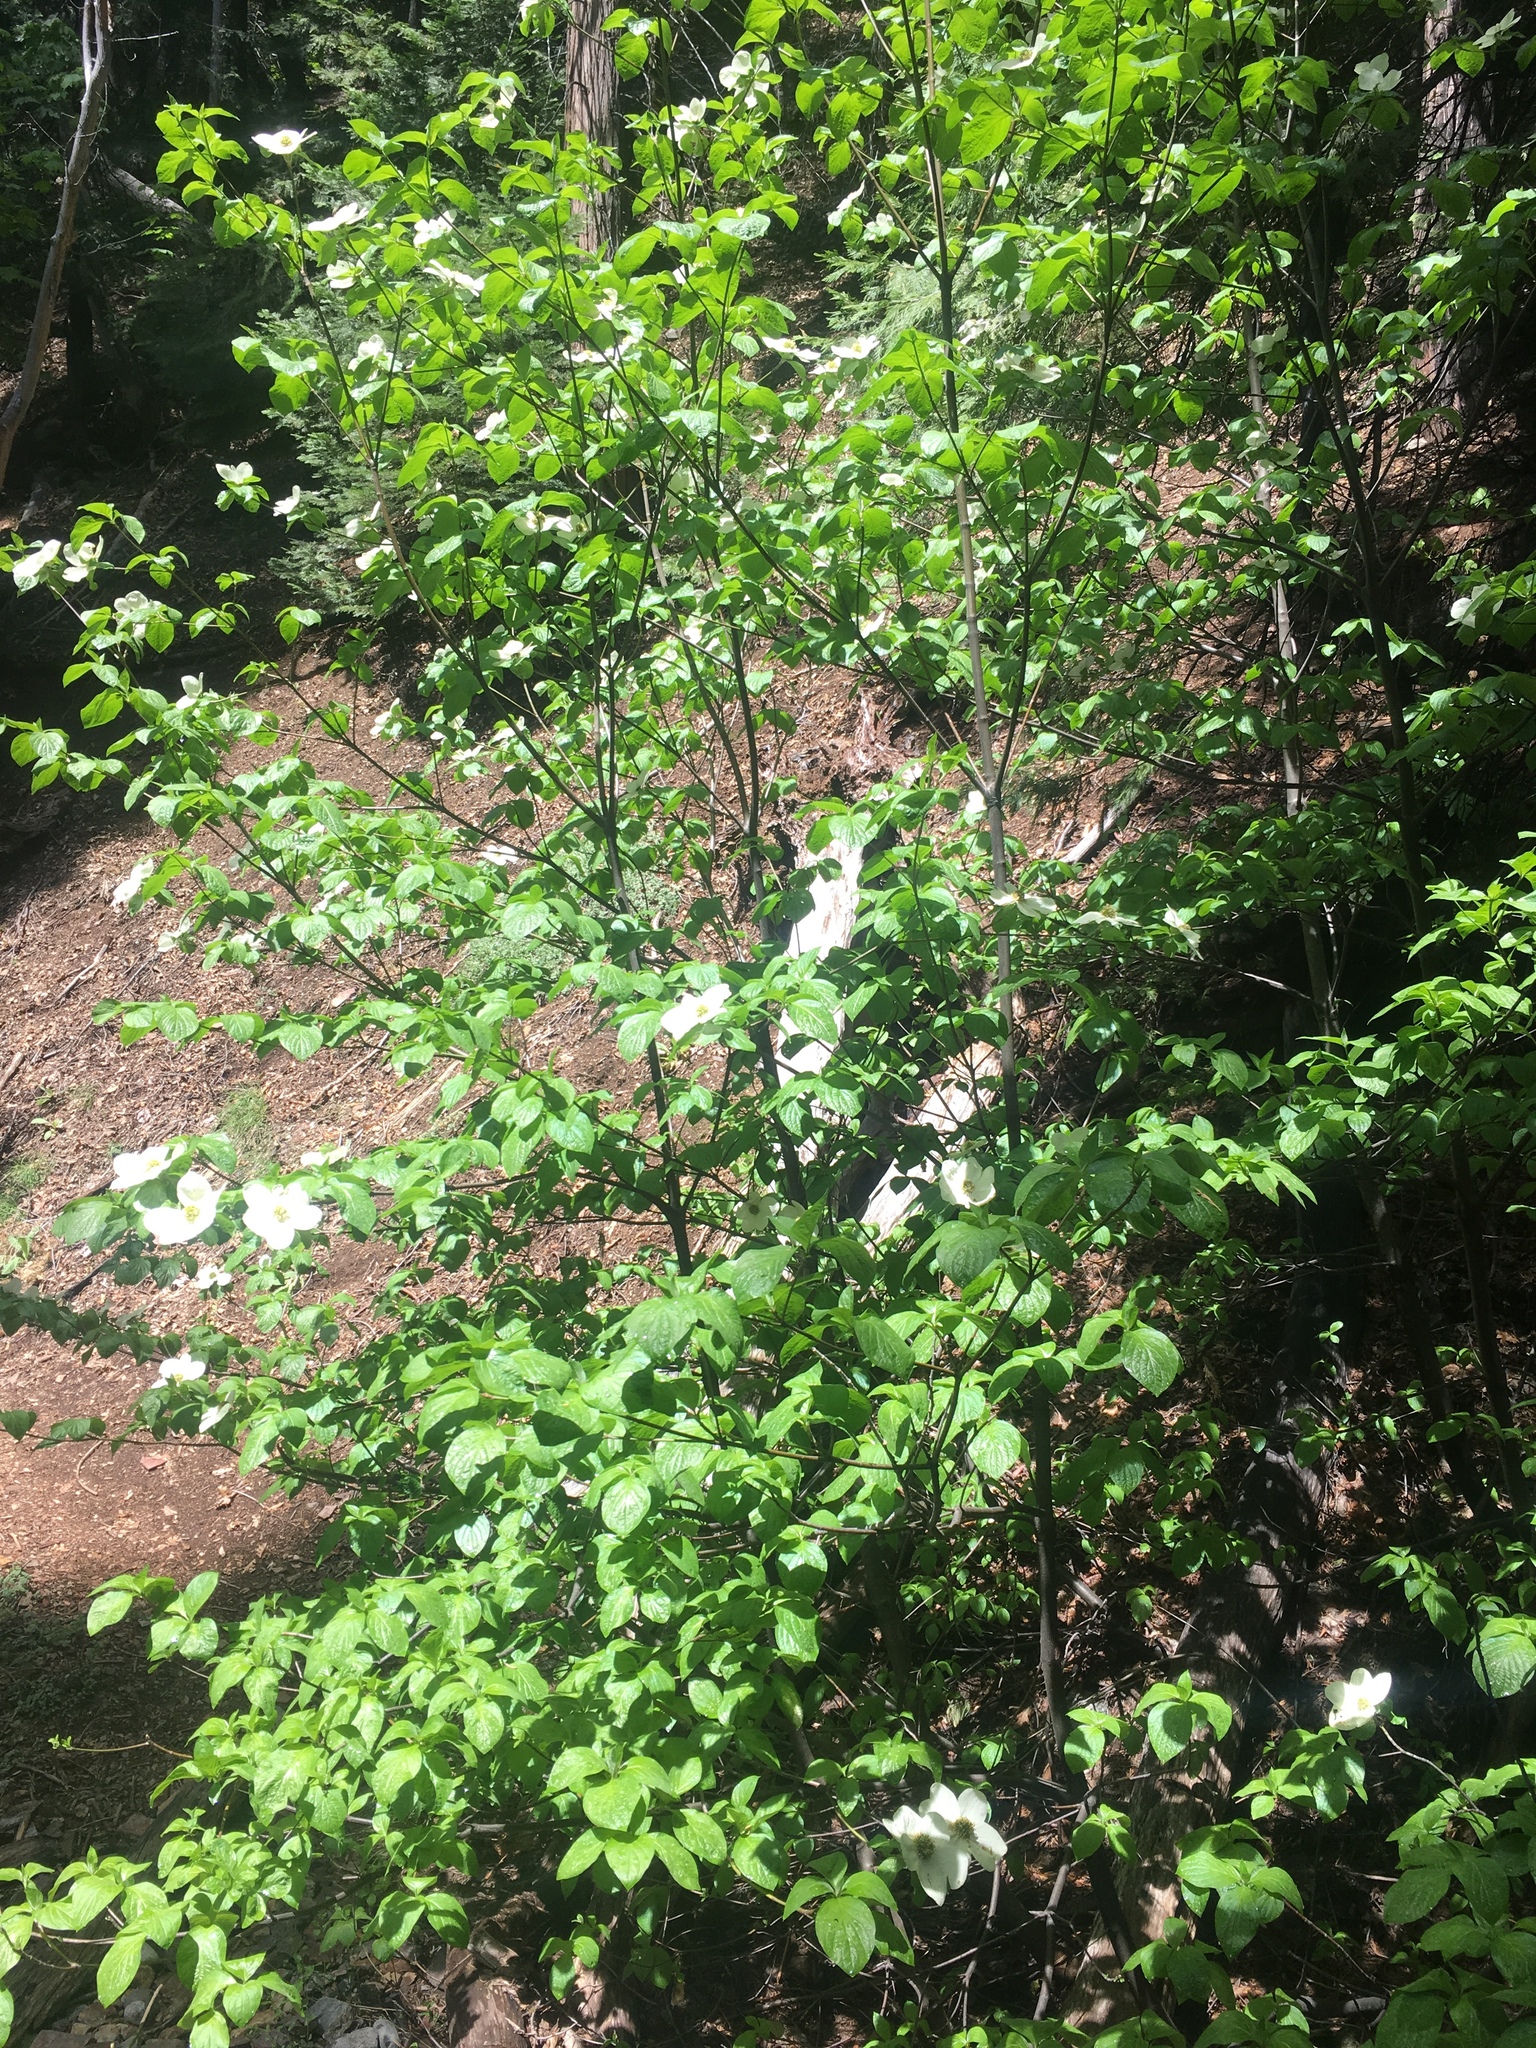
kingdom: Plantae
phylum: Tracheophyta
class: Magnoliopsida
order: Cornales
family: Cornaceae
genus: Cornus
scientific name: Cornus nuttallii
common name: Pacific dogwood
